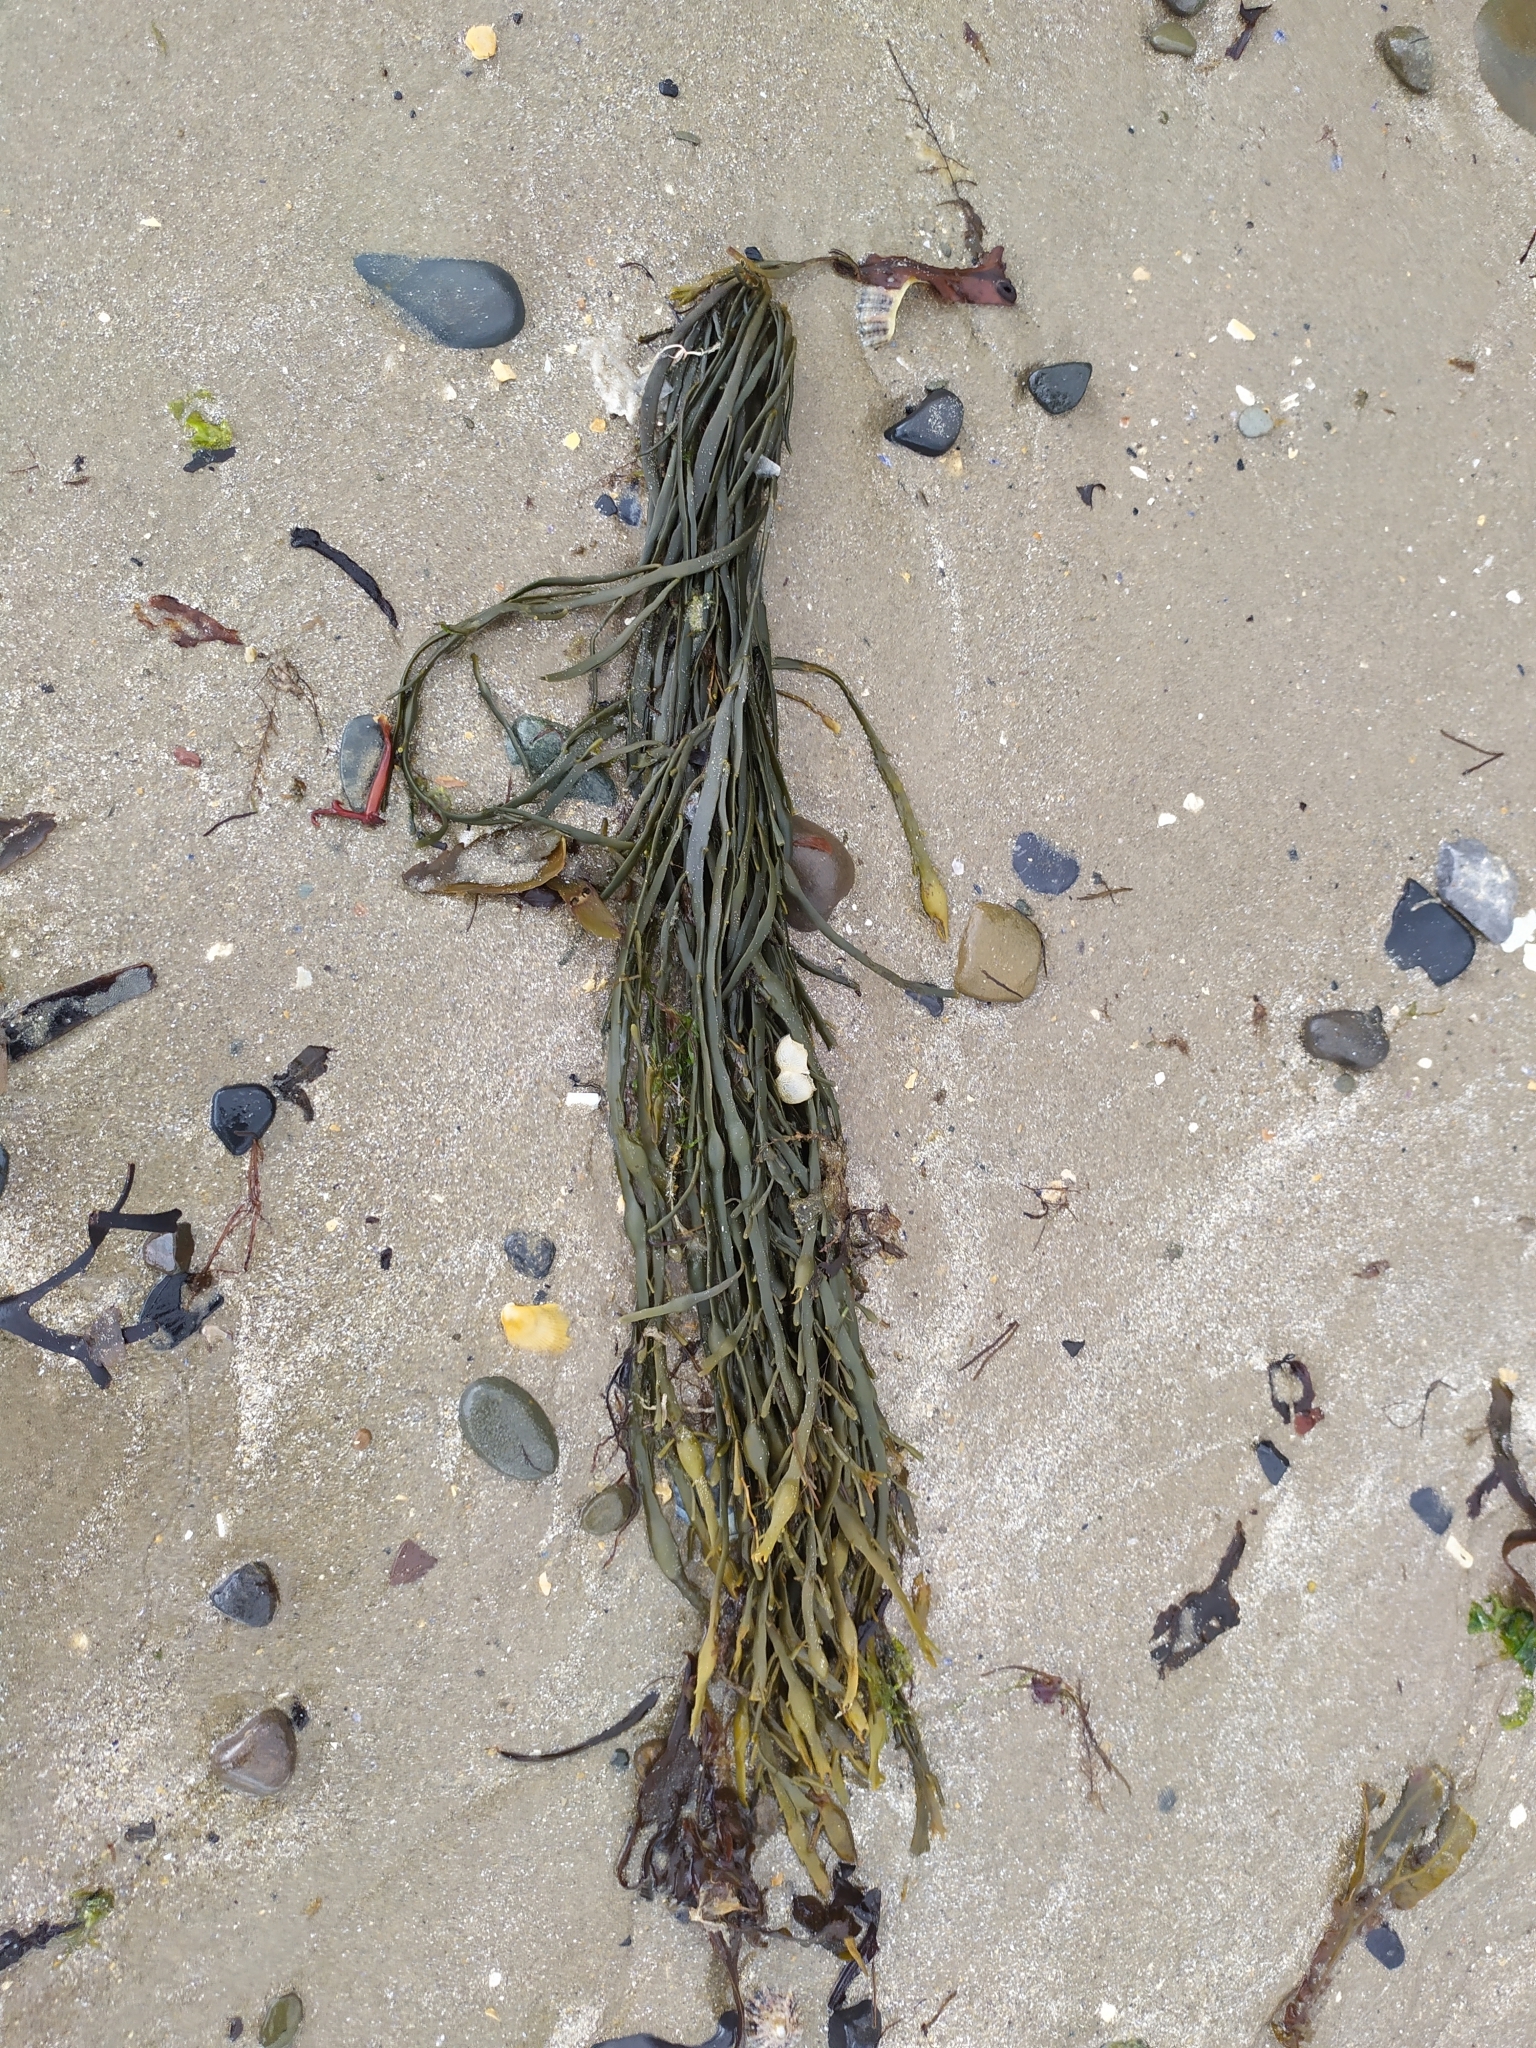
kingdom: Chromista
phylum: Ochrophyta
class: Phaeophyceae
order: Fucales
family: Fucaceae
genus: Ascophyllum
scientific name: Ascophyllum nodosum
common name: Knotted wrack
